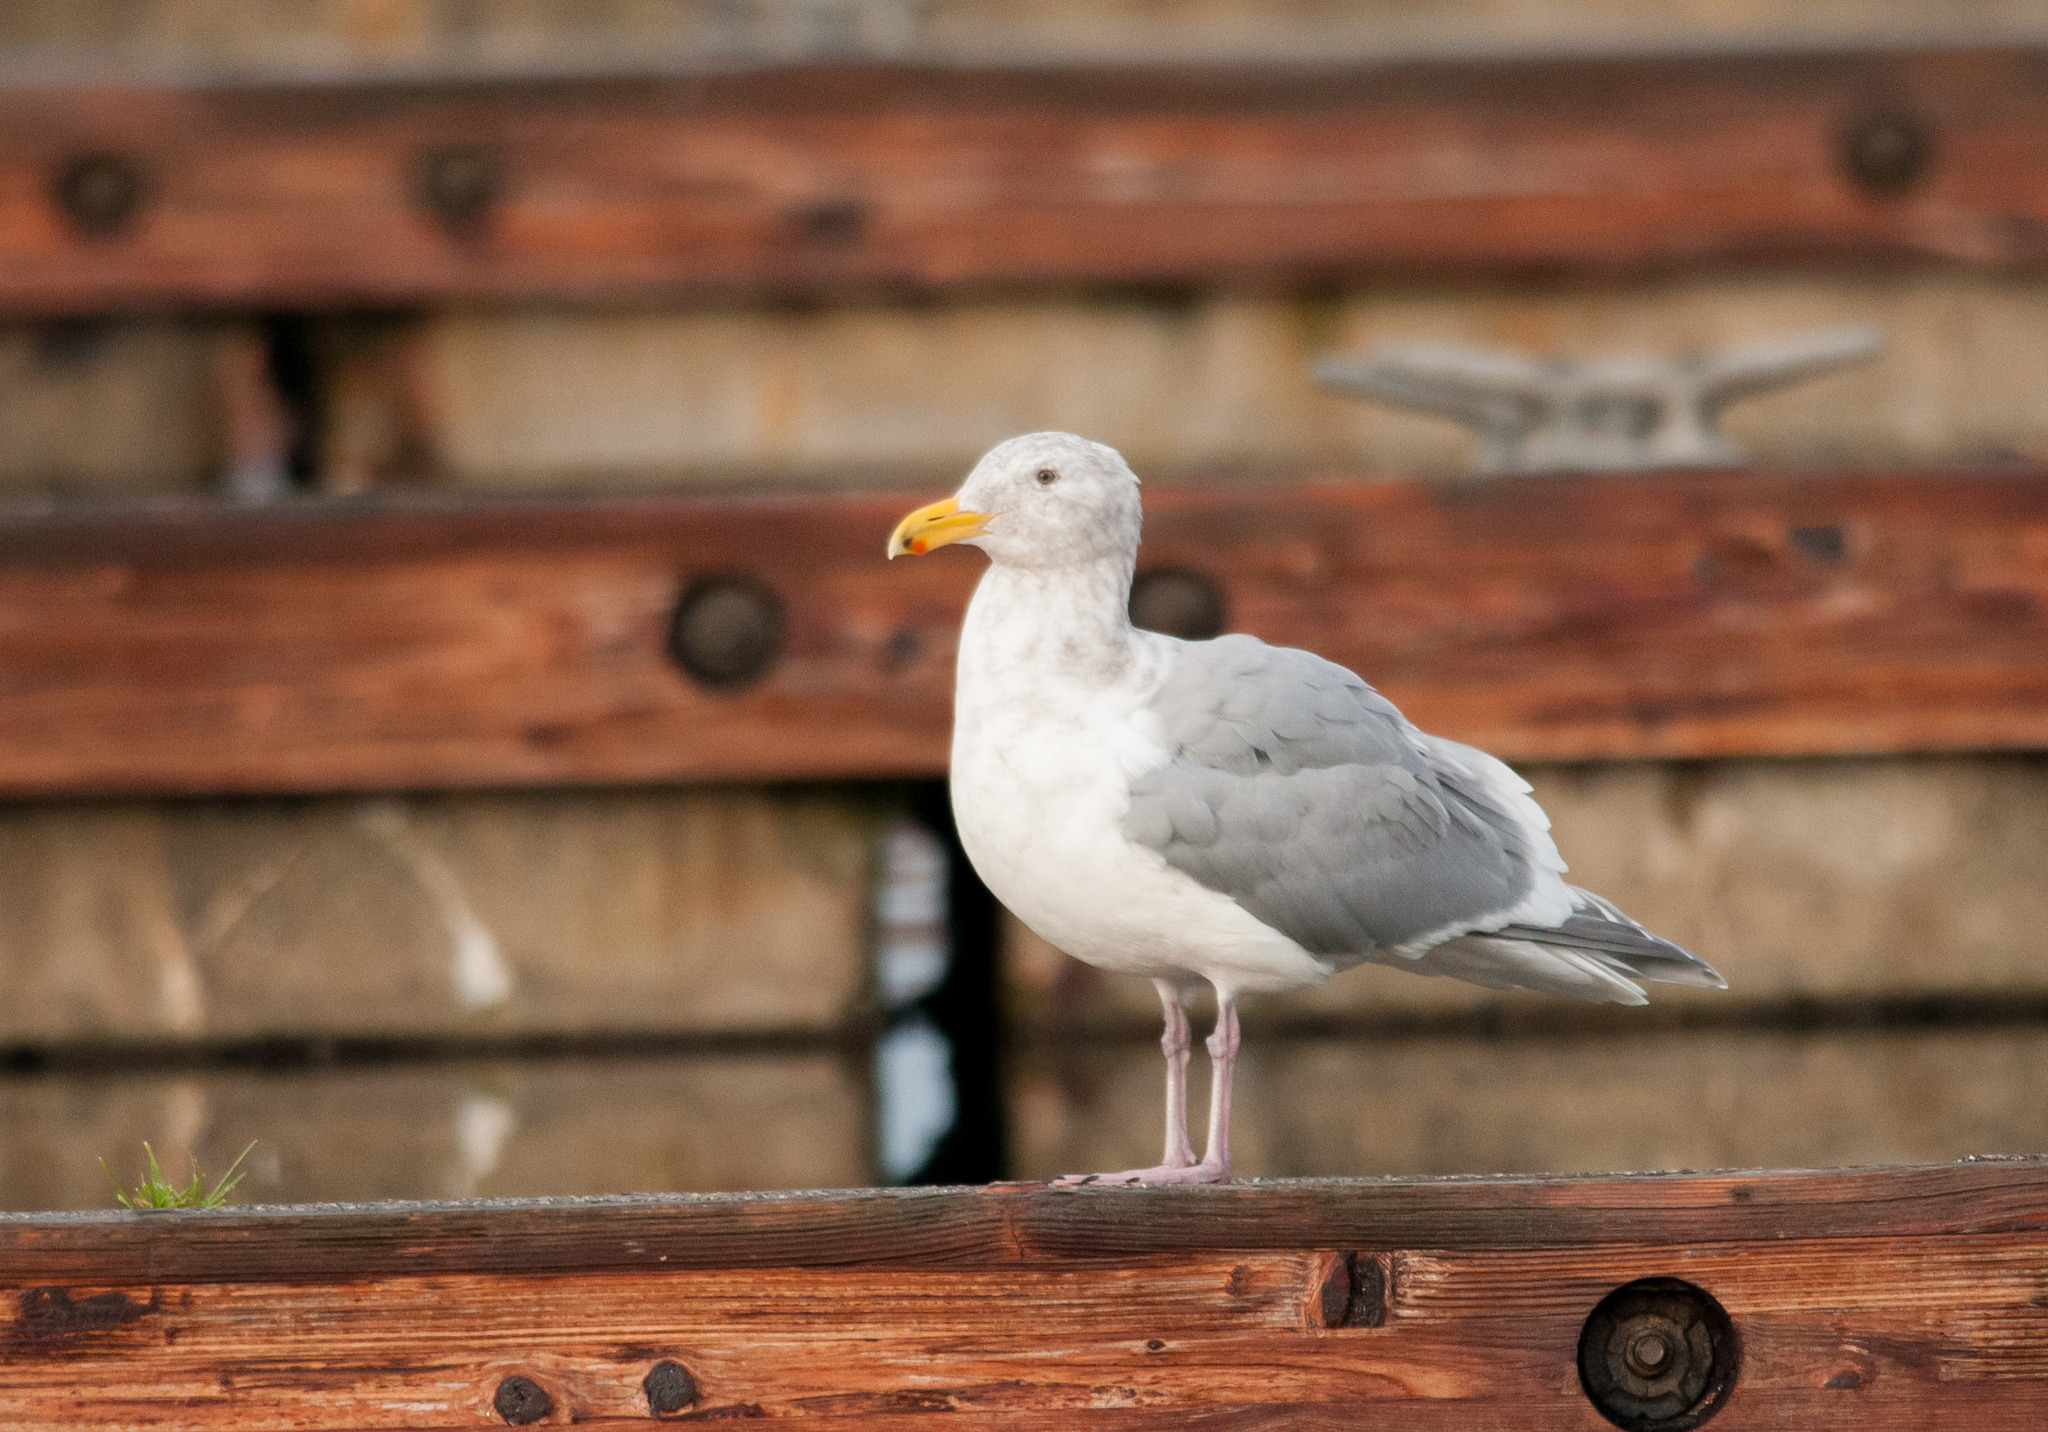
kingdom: Animalia
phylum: Chordata
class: Aves
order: Charadriiformes
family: Laridae
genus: Larus
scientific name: Larus glaucescens
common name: Glaucous-winged gull
